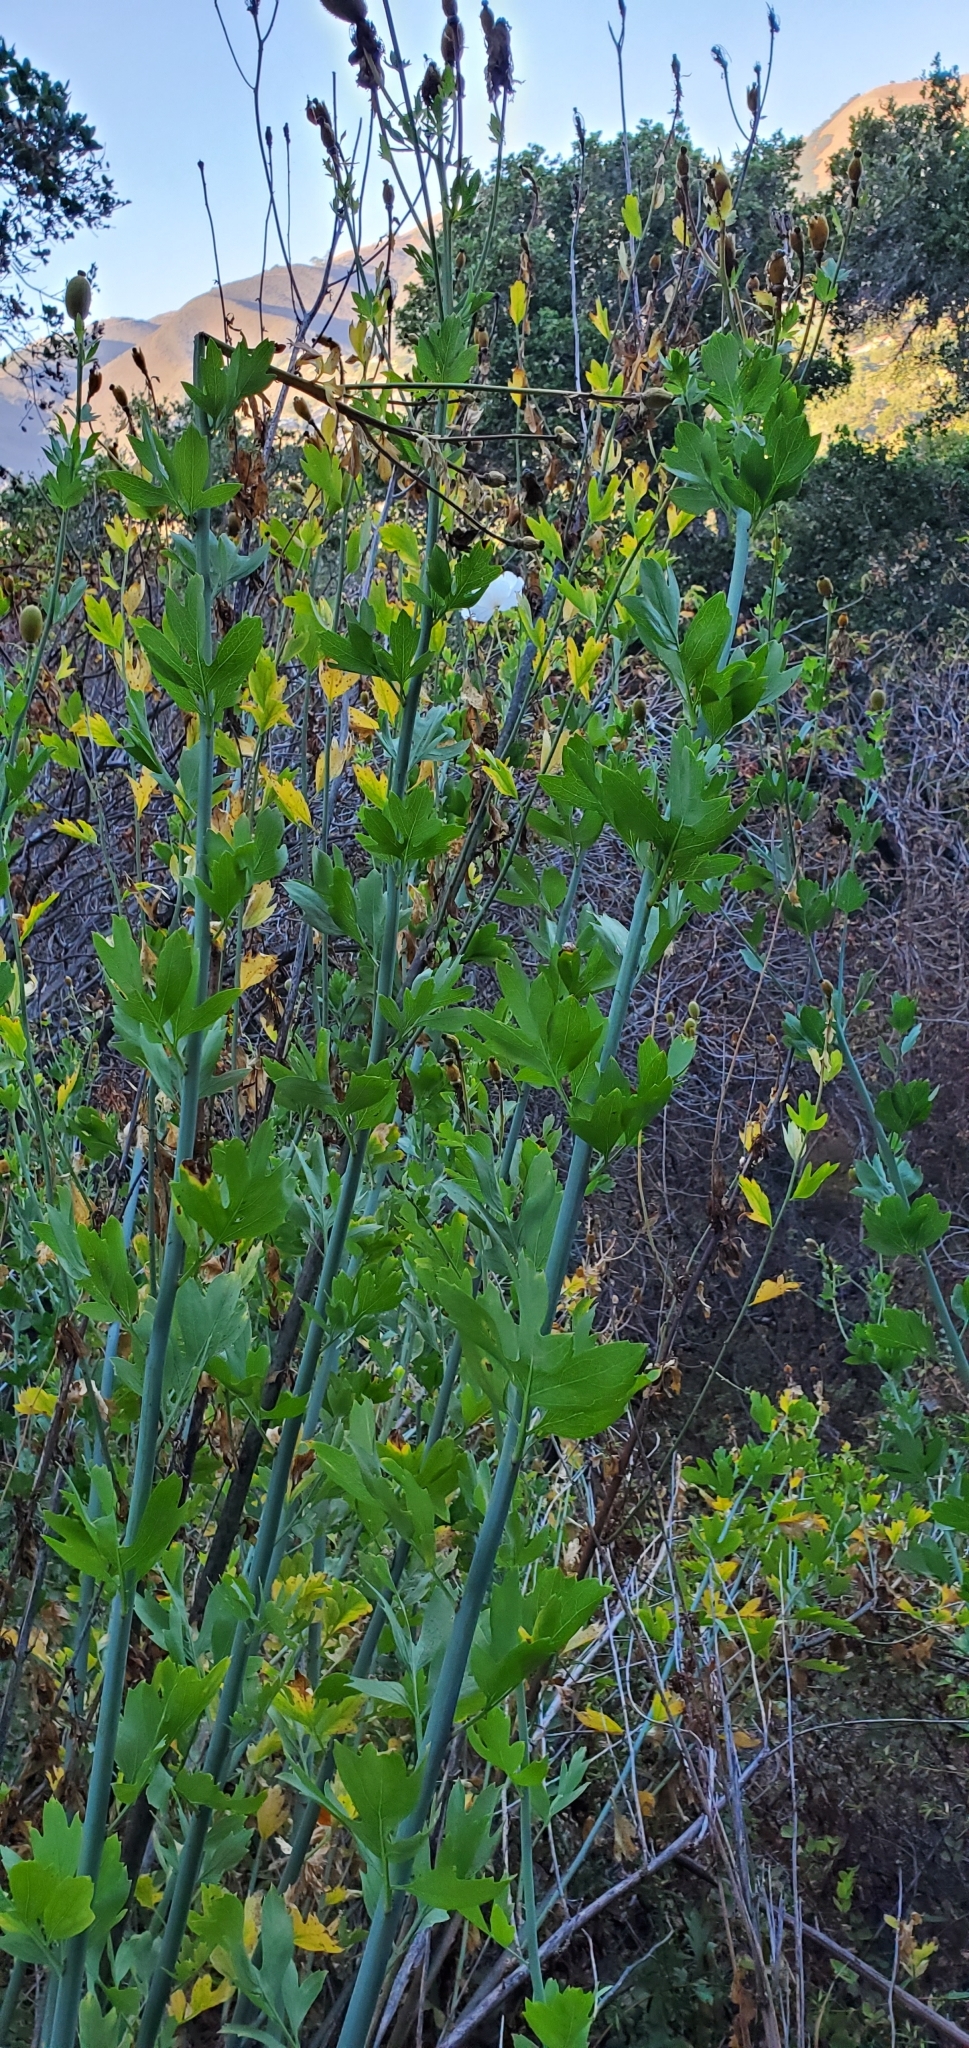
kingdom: Plantae
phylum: Tracheophyta
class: Magnoliopsida
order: Ranunculales
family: Papaveraceae
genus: Romneya
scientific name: Romneya coulteri
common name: California tree-poppy
